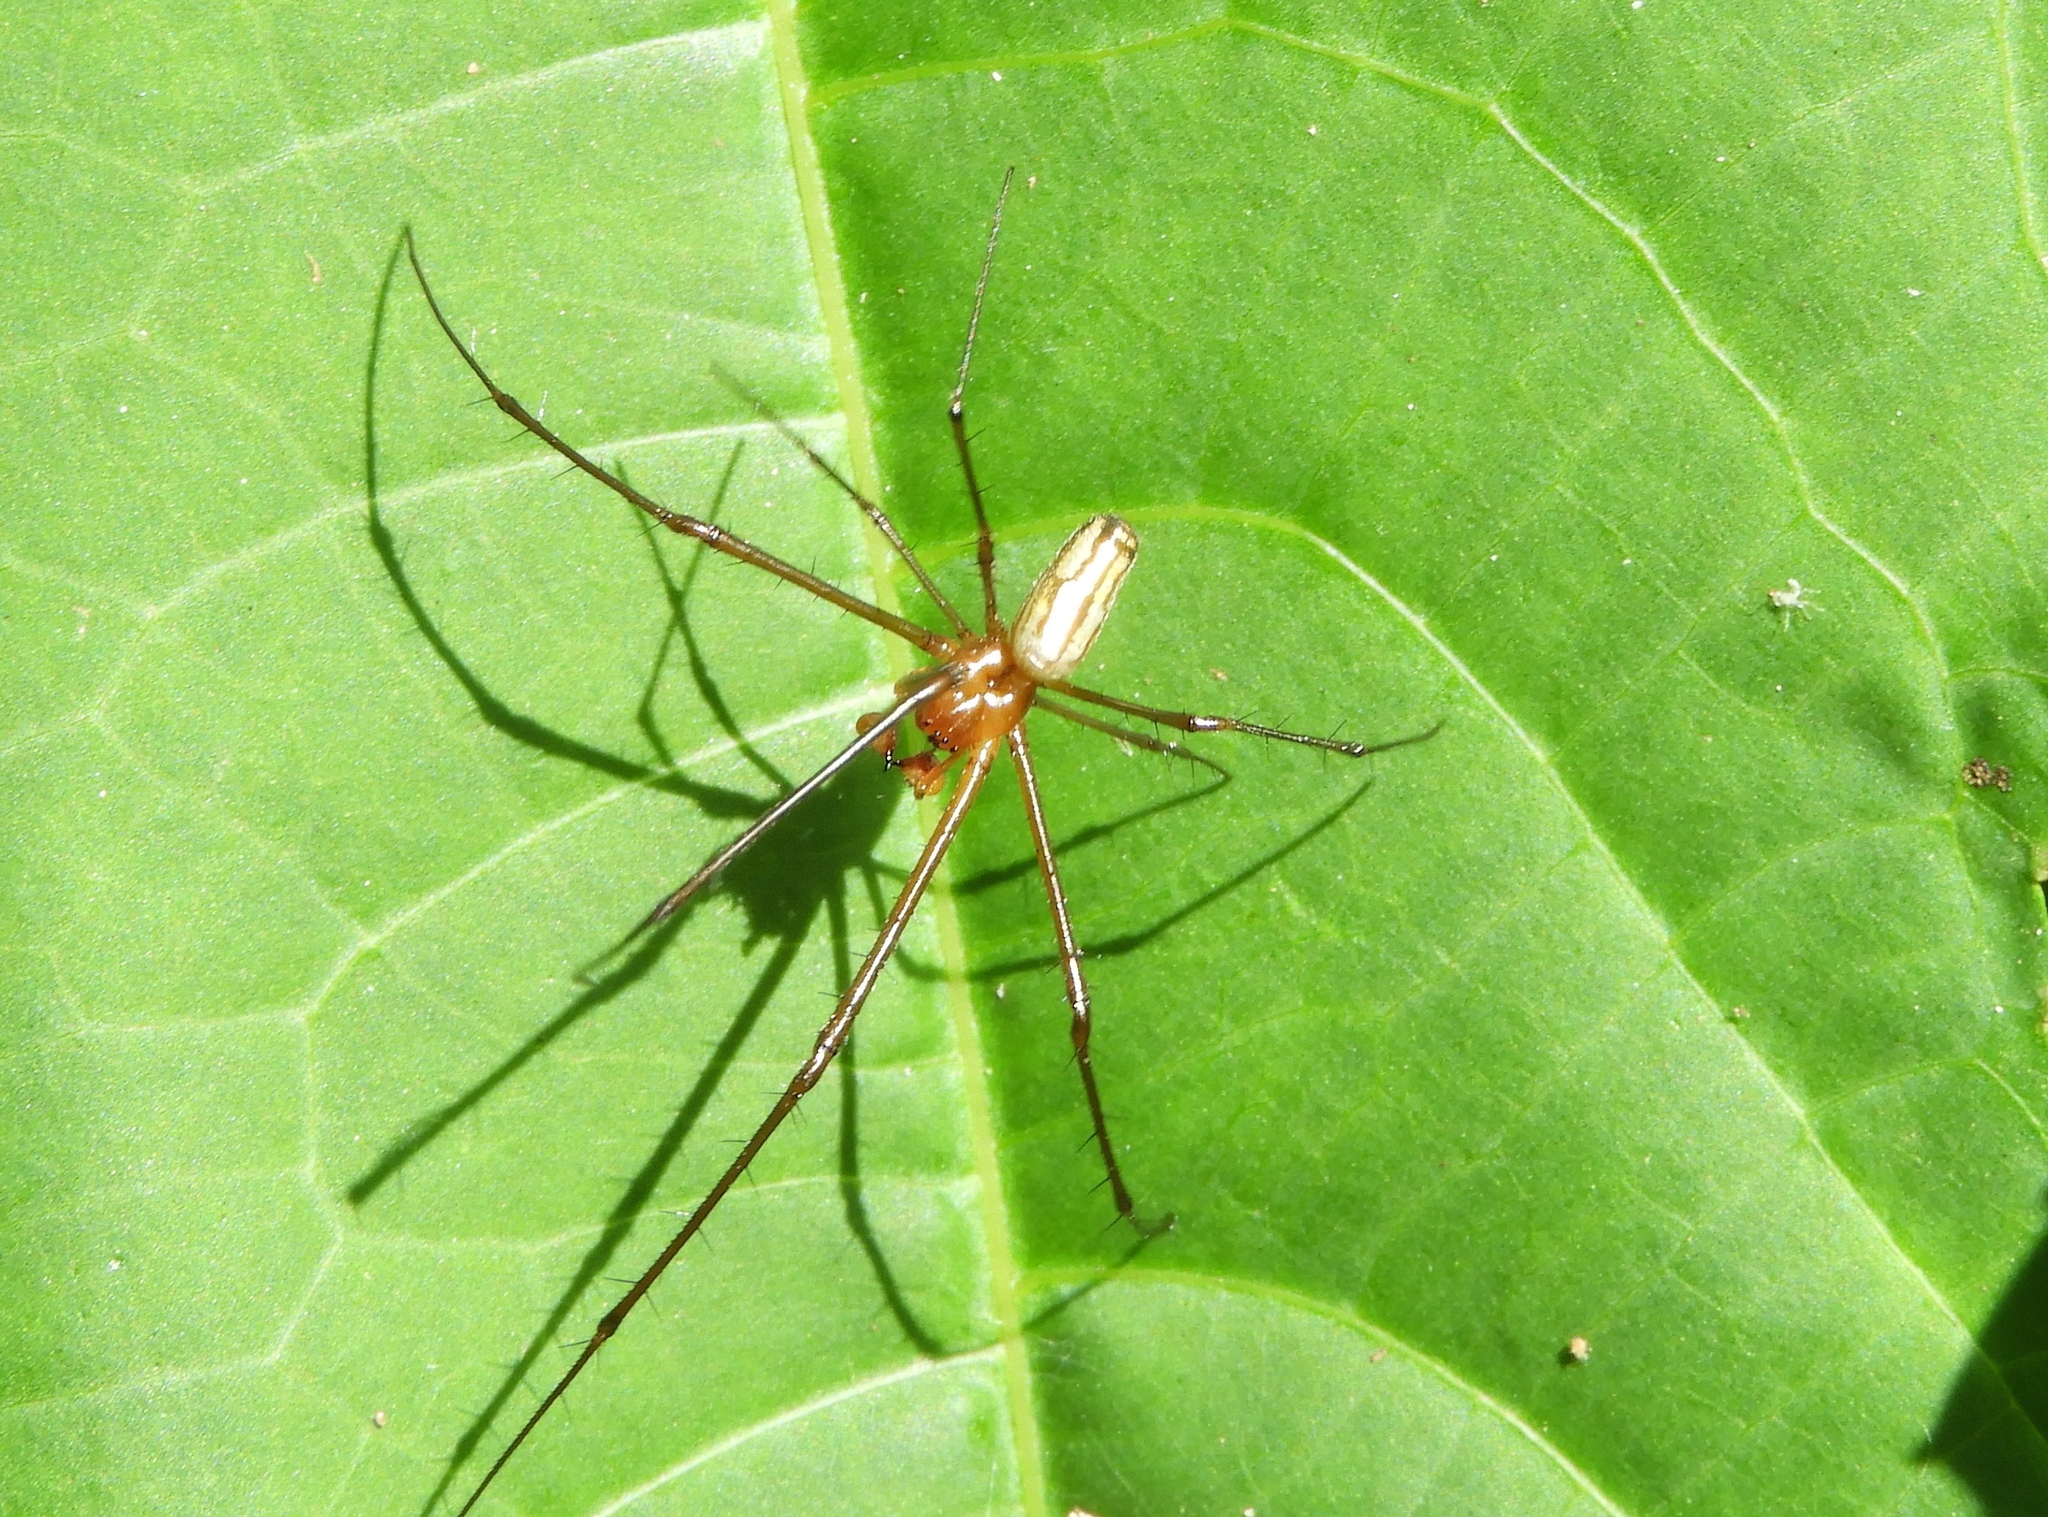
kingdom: Animalia
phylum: Arthropoda
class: Arachnida
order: Araneae
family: Tetragnathidae
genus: Leucauge
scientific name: Leucauge
